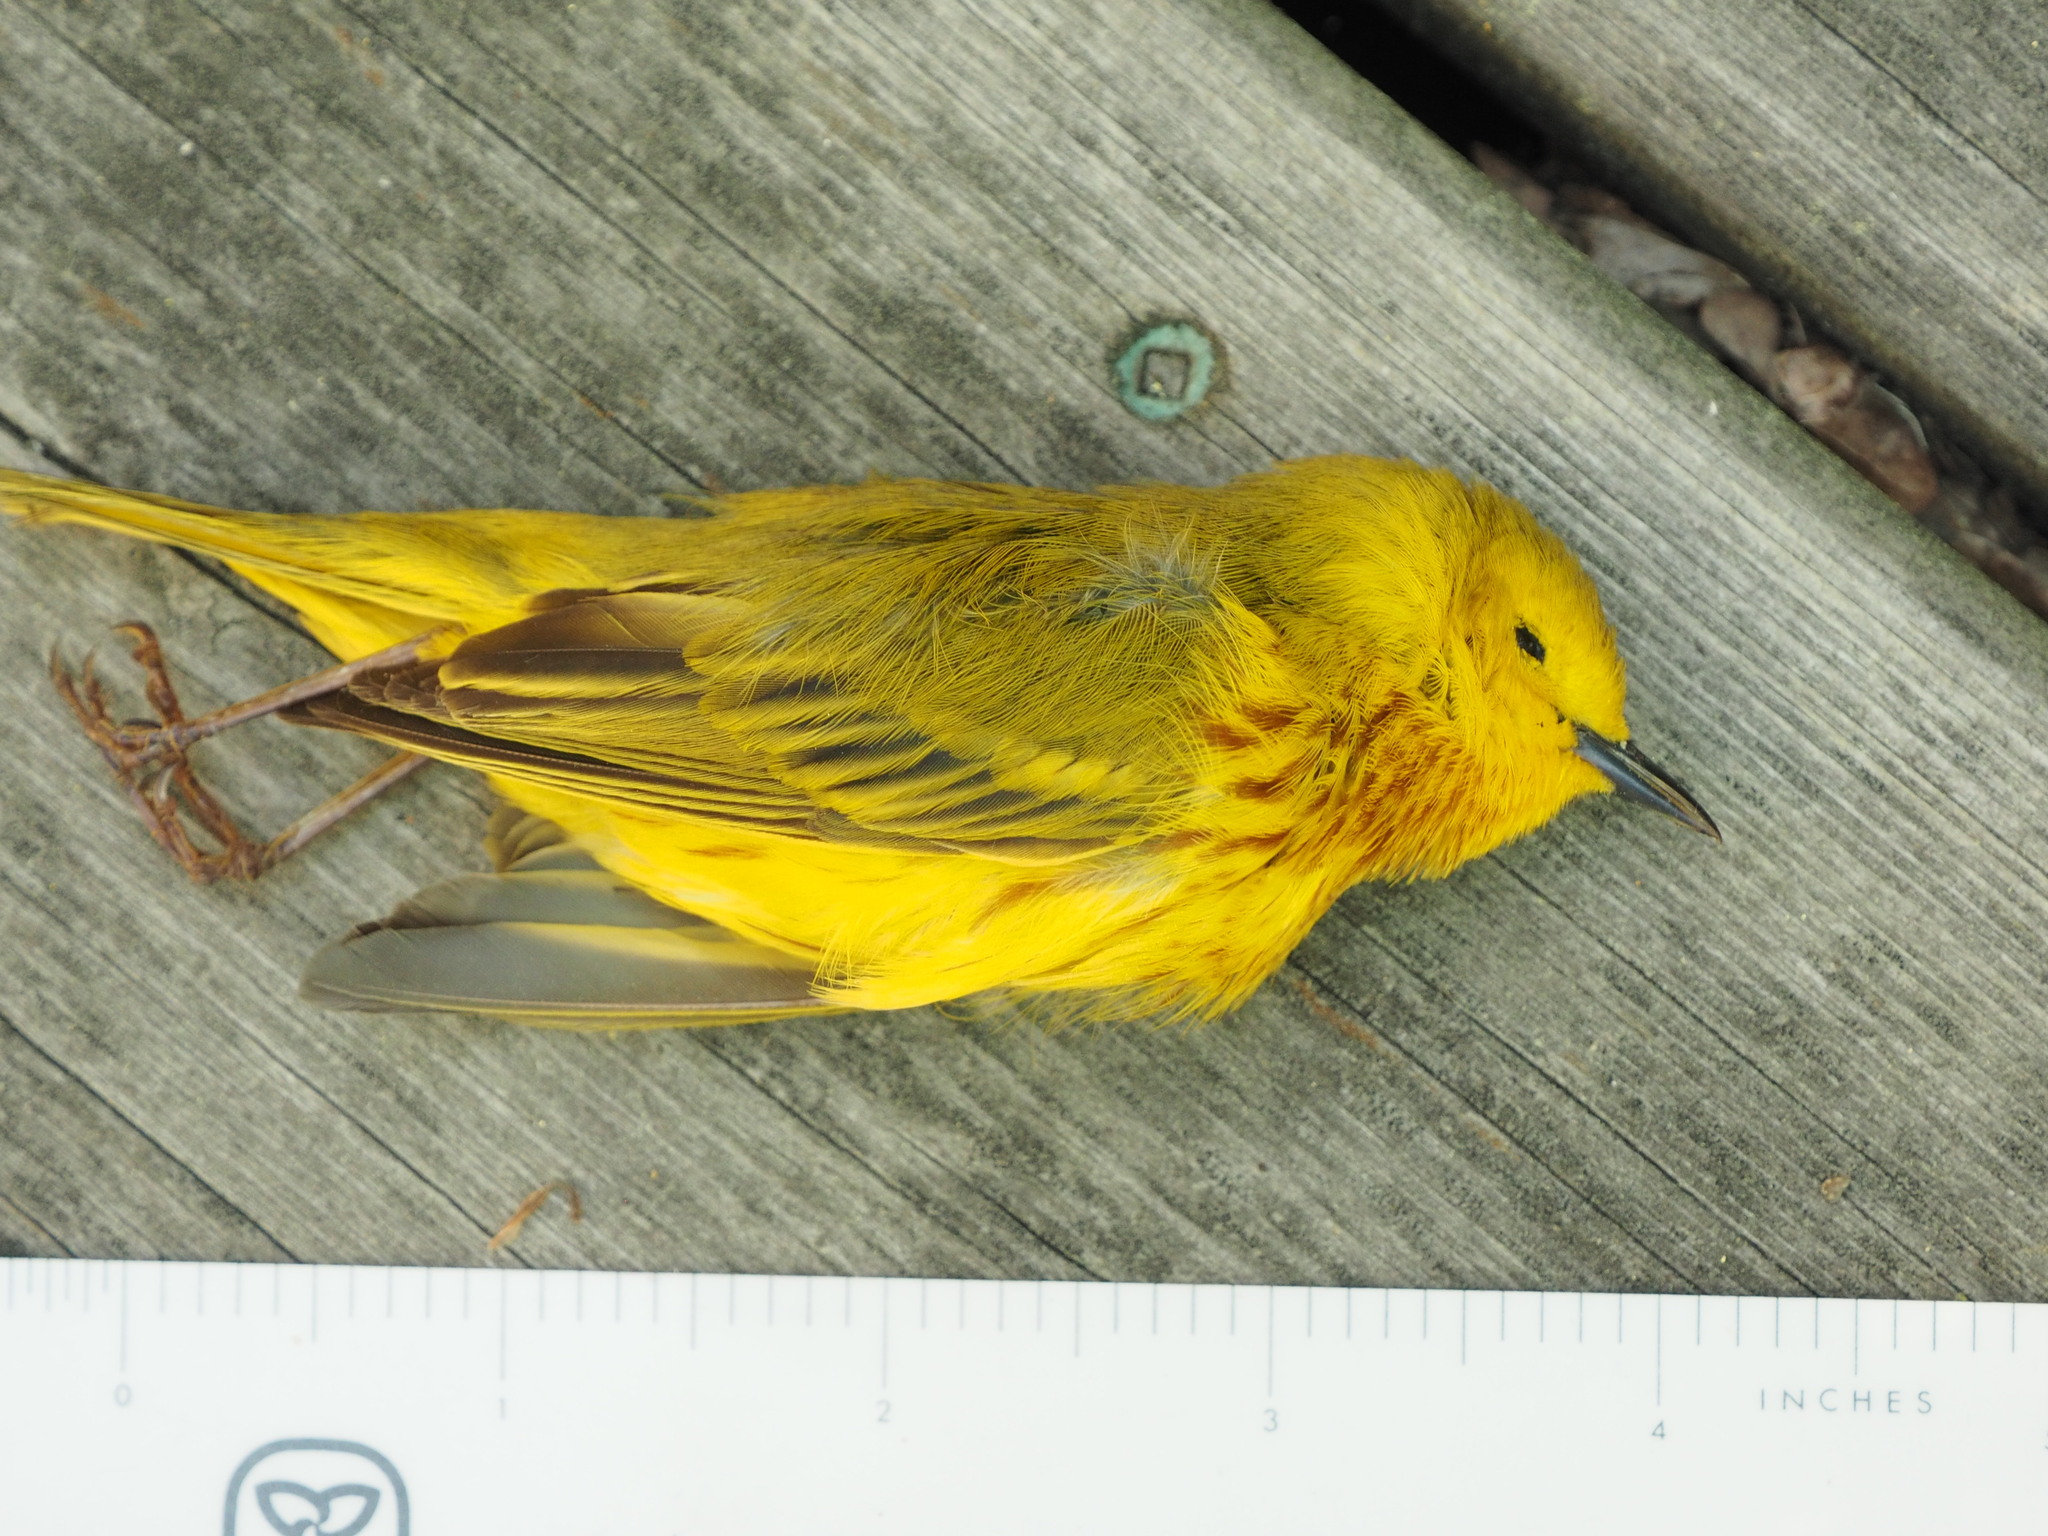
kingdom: Animalia
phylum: Chordata
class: Aves
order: Passeriformes
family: Parulidae
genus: Setophaga
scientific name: Setophaga petechia
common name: Yellow warbler
